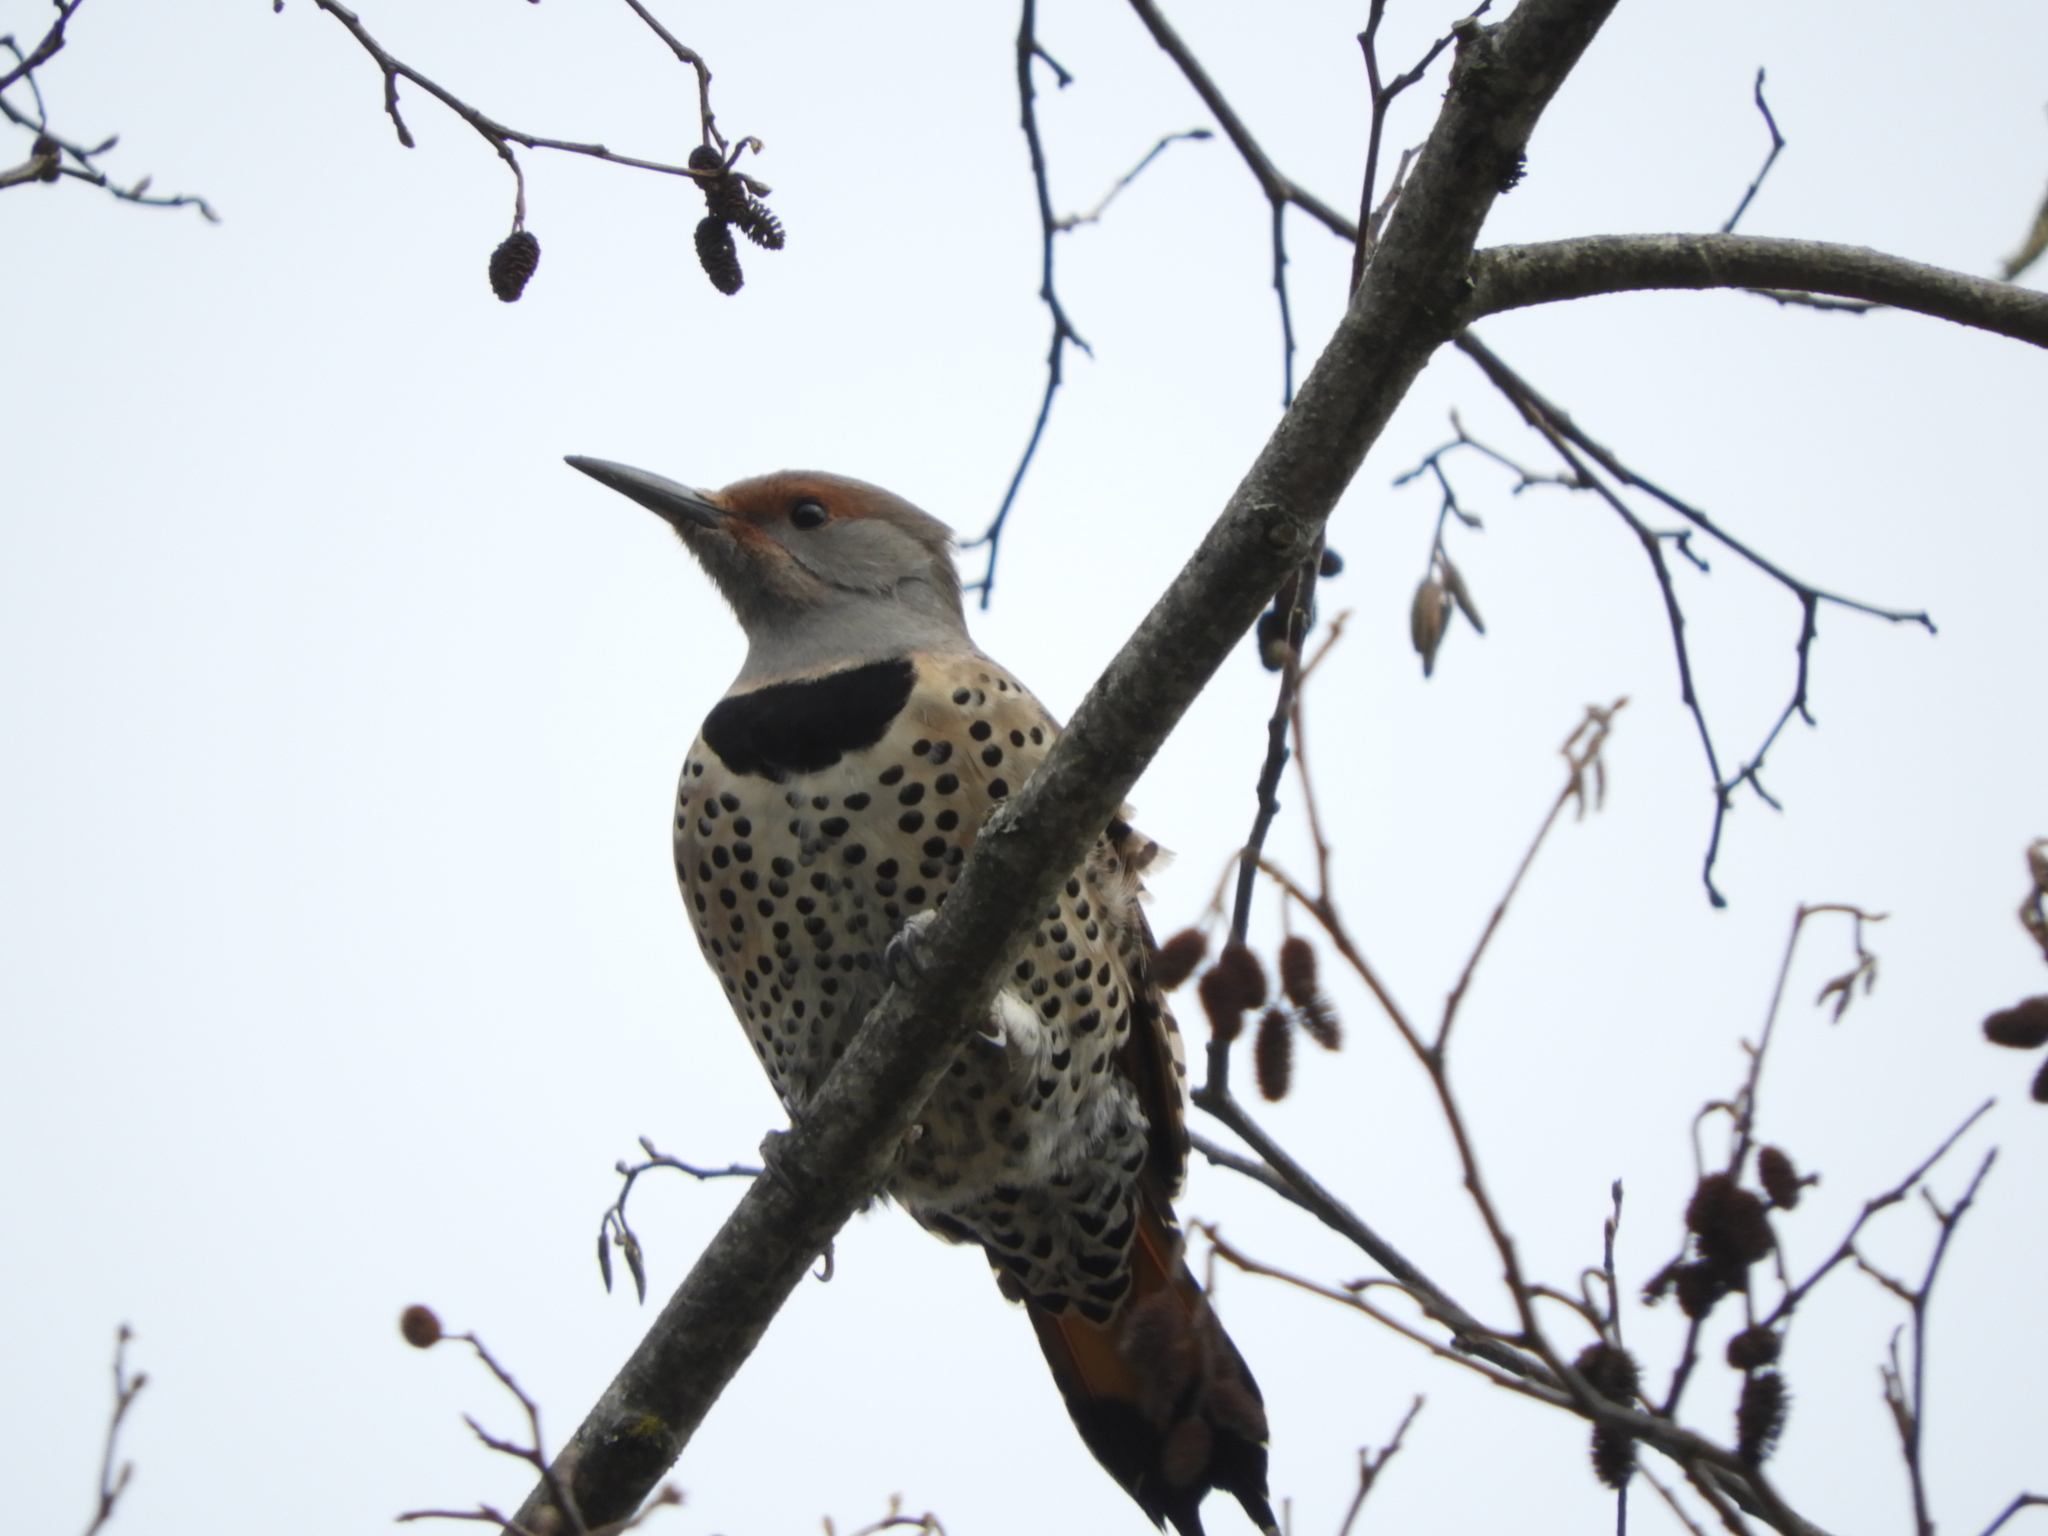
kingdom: Animalia
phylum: Chordata
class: Aves
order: Piciformes
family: Picidae
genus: Colaptes
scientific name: Colaptes auratus
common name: Northern flicker
